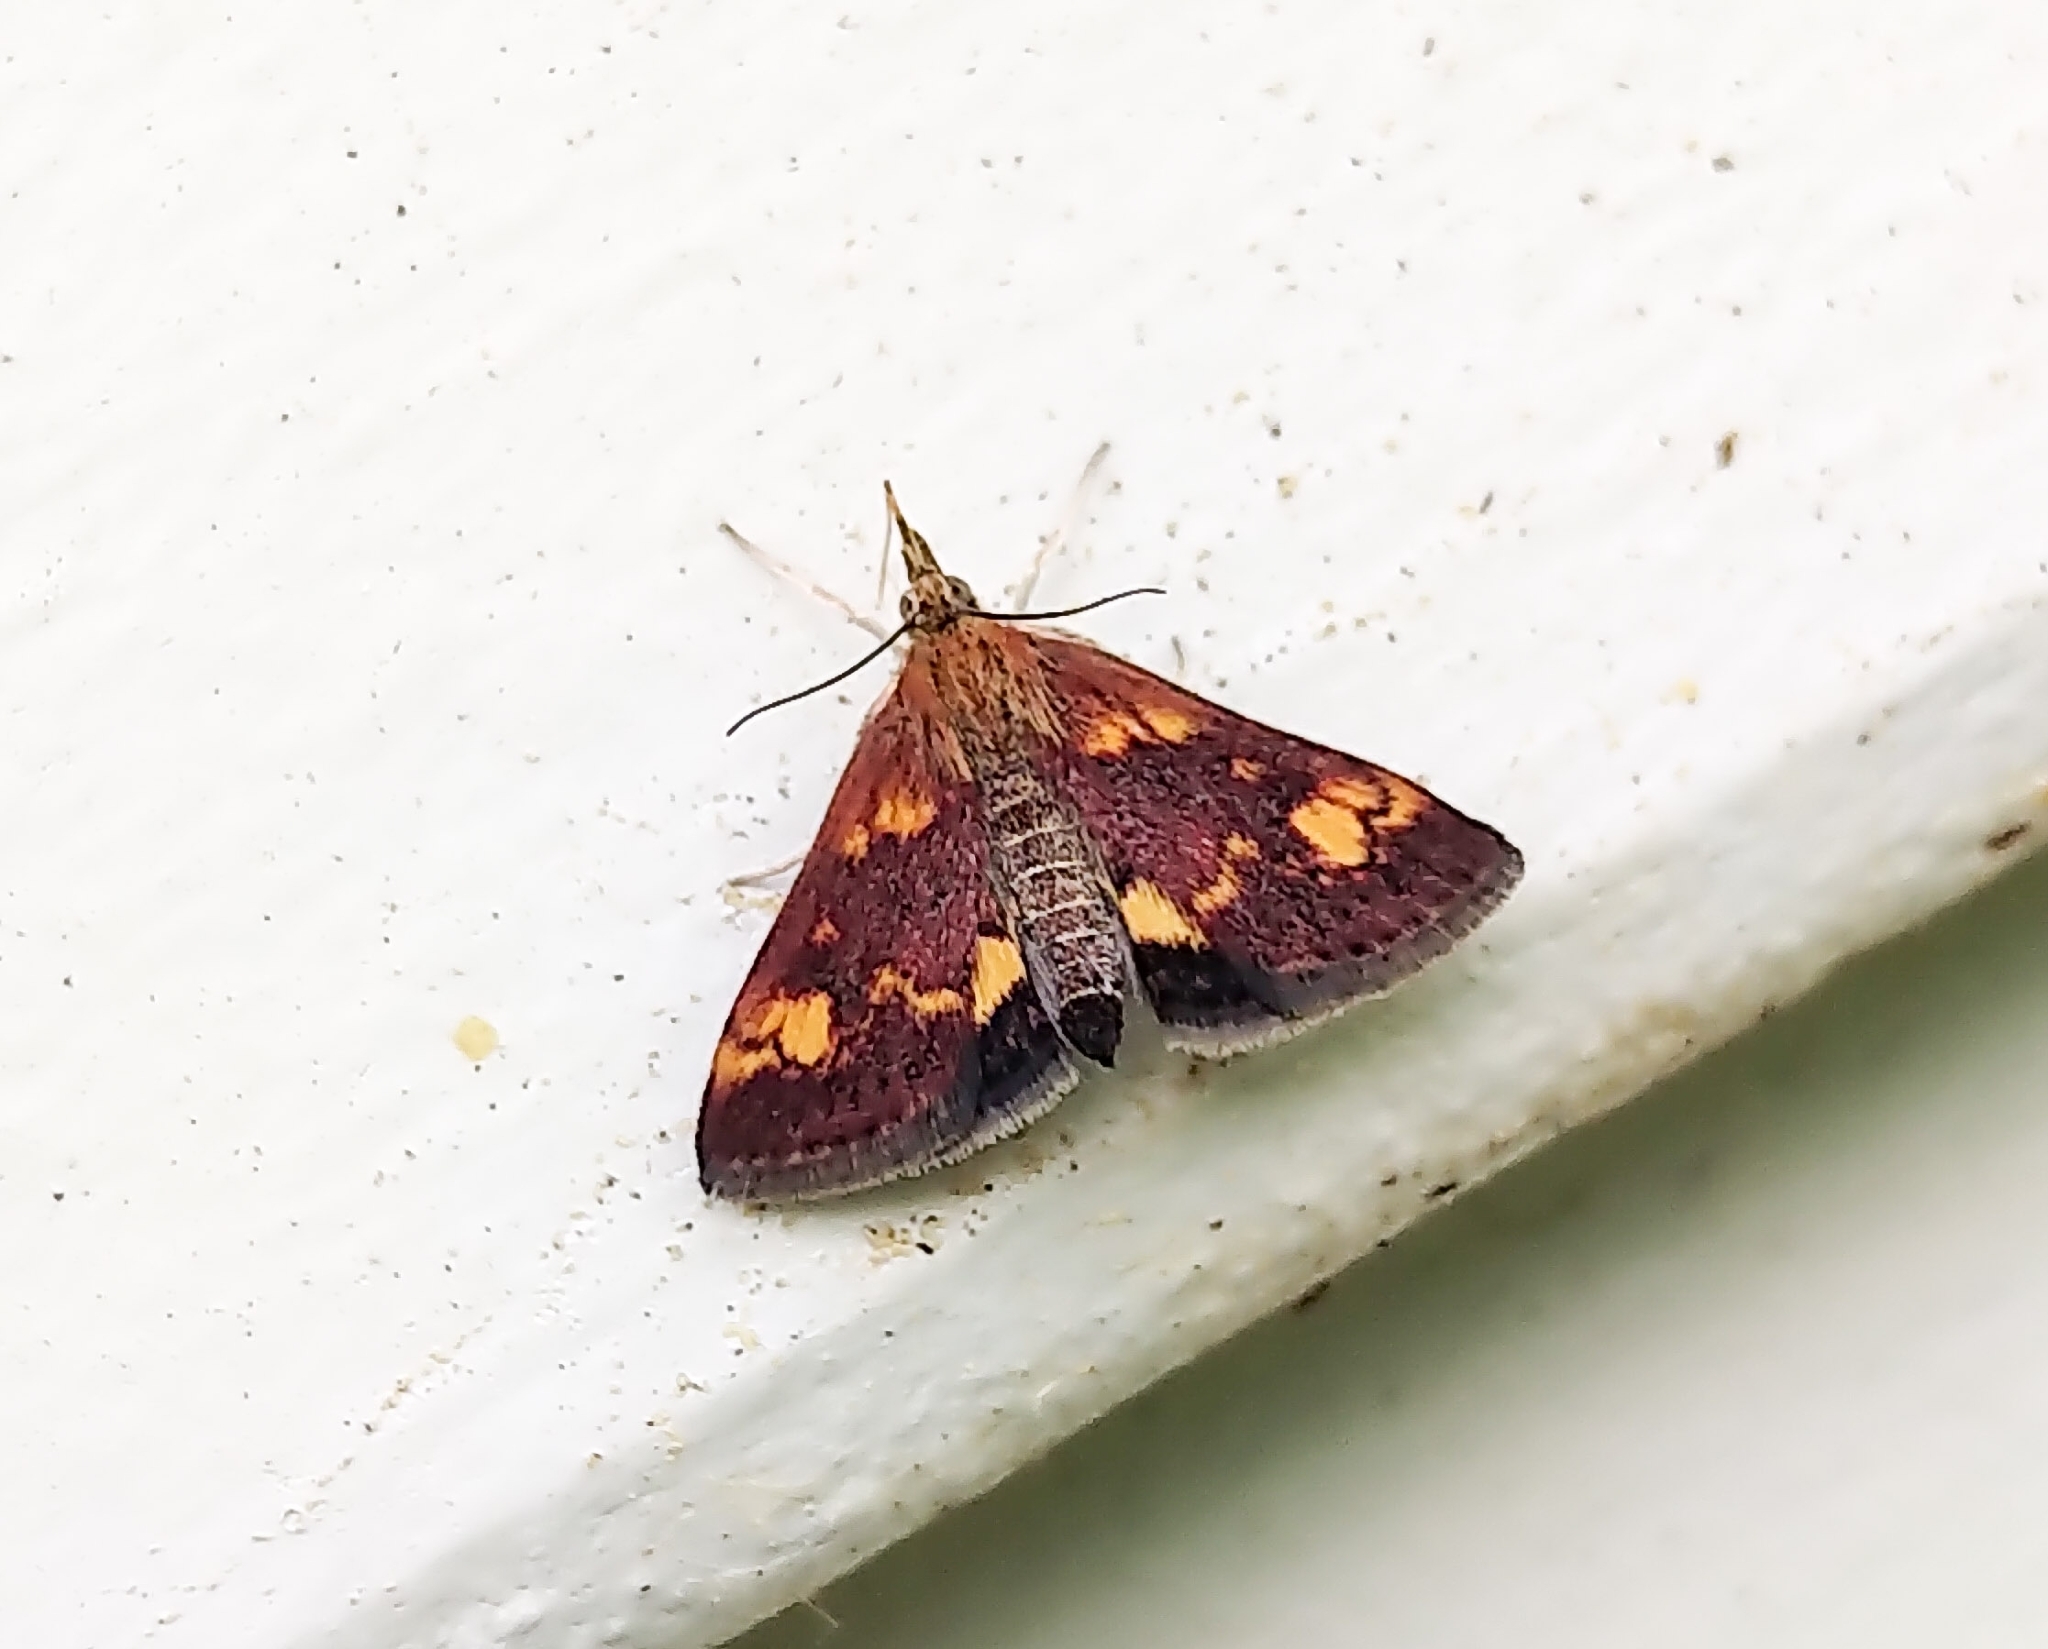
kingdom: Animalia
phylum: Arthropoda
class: Insecta
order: Lepidoptera
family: Crambidae
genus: Pyrausta
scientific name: Pyrausta orphisalis
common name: Orange mint moth
